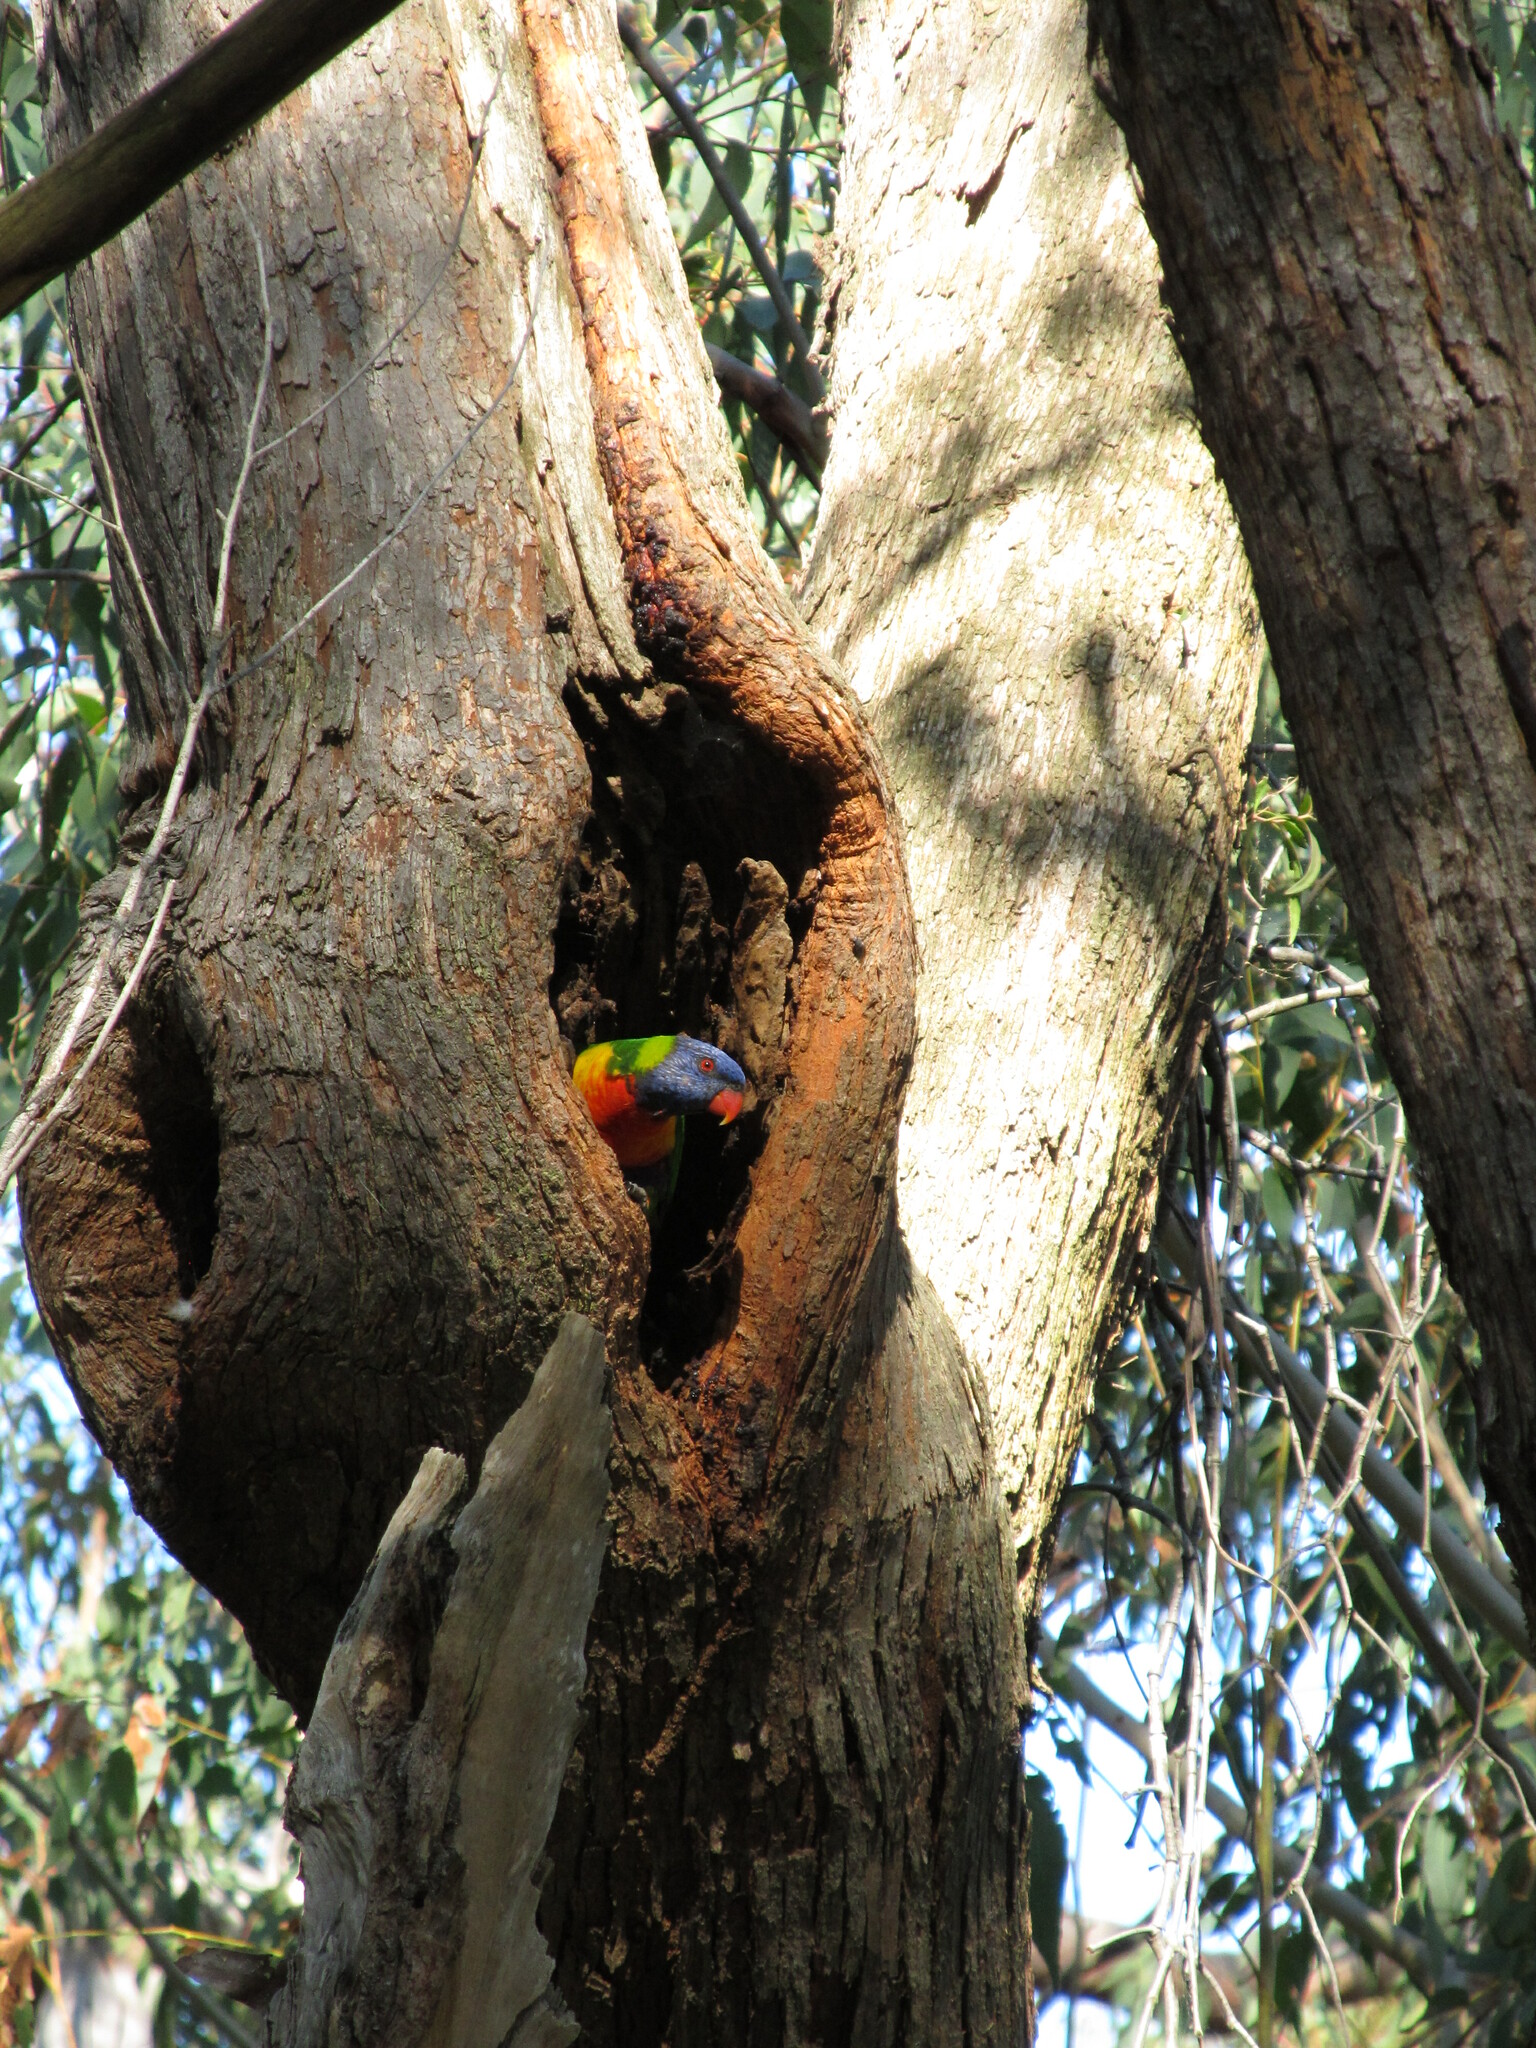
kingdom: Animalia
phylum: Chordata
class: Aves
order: Psittaciformes
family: Psittacidae
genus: Trichoglossus
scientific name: Trichoglossus haematodus
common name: Coconut lorikeet
